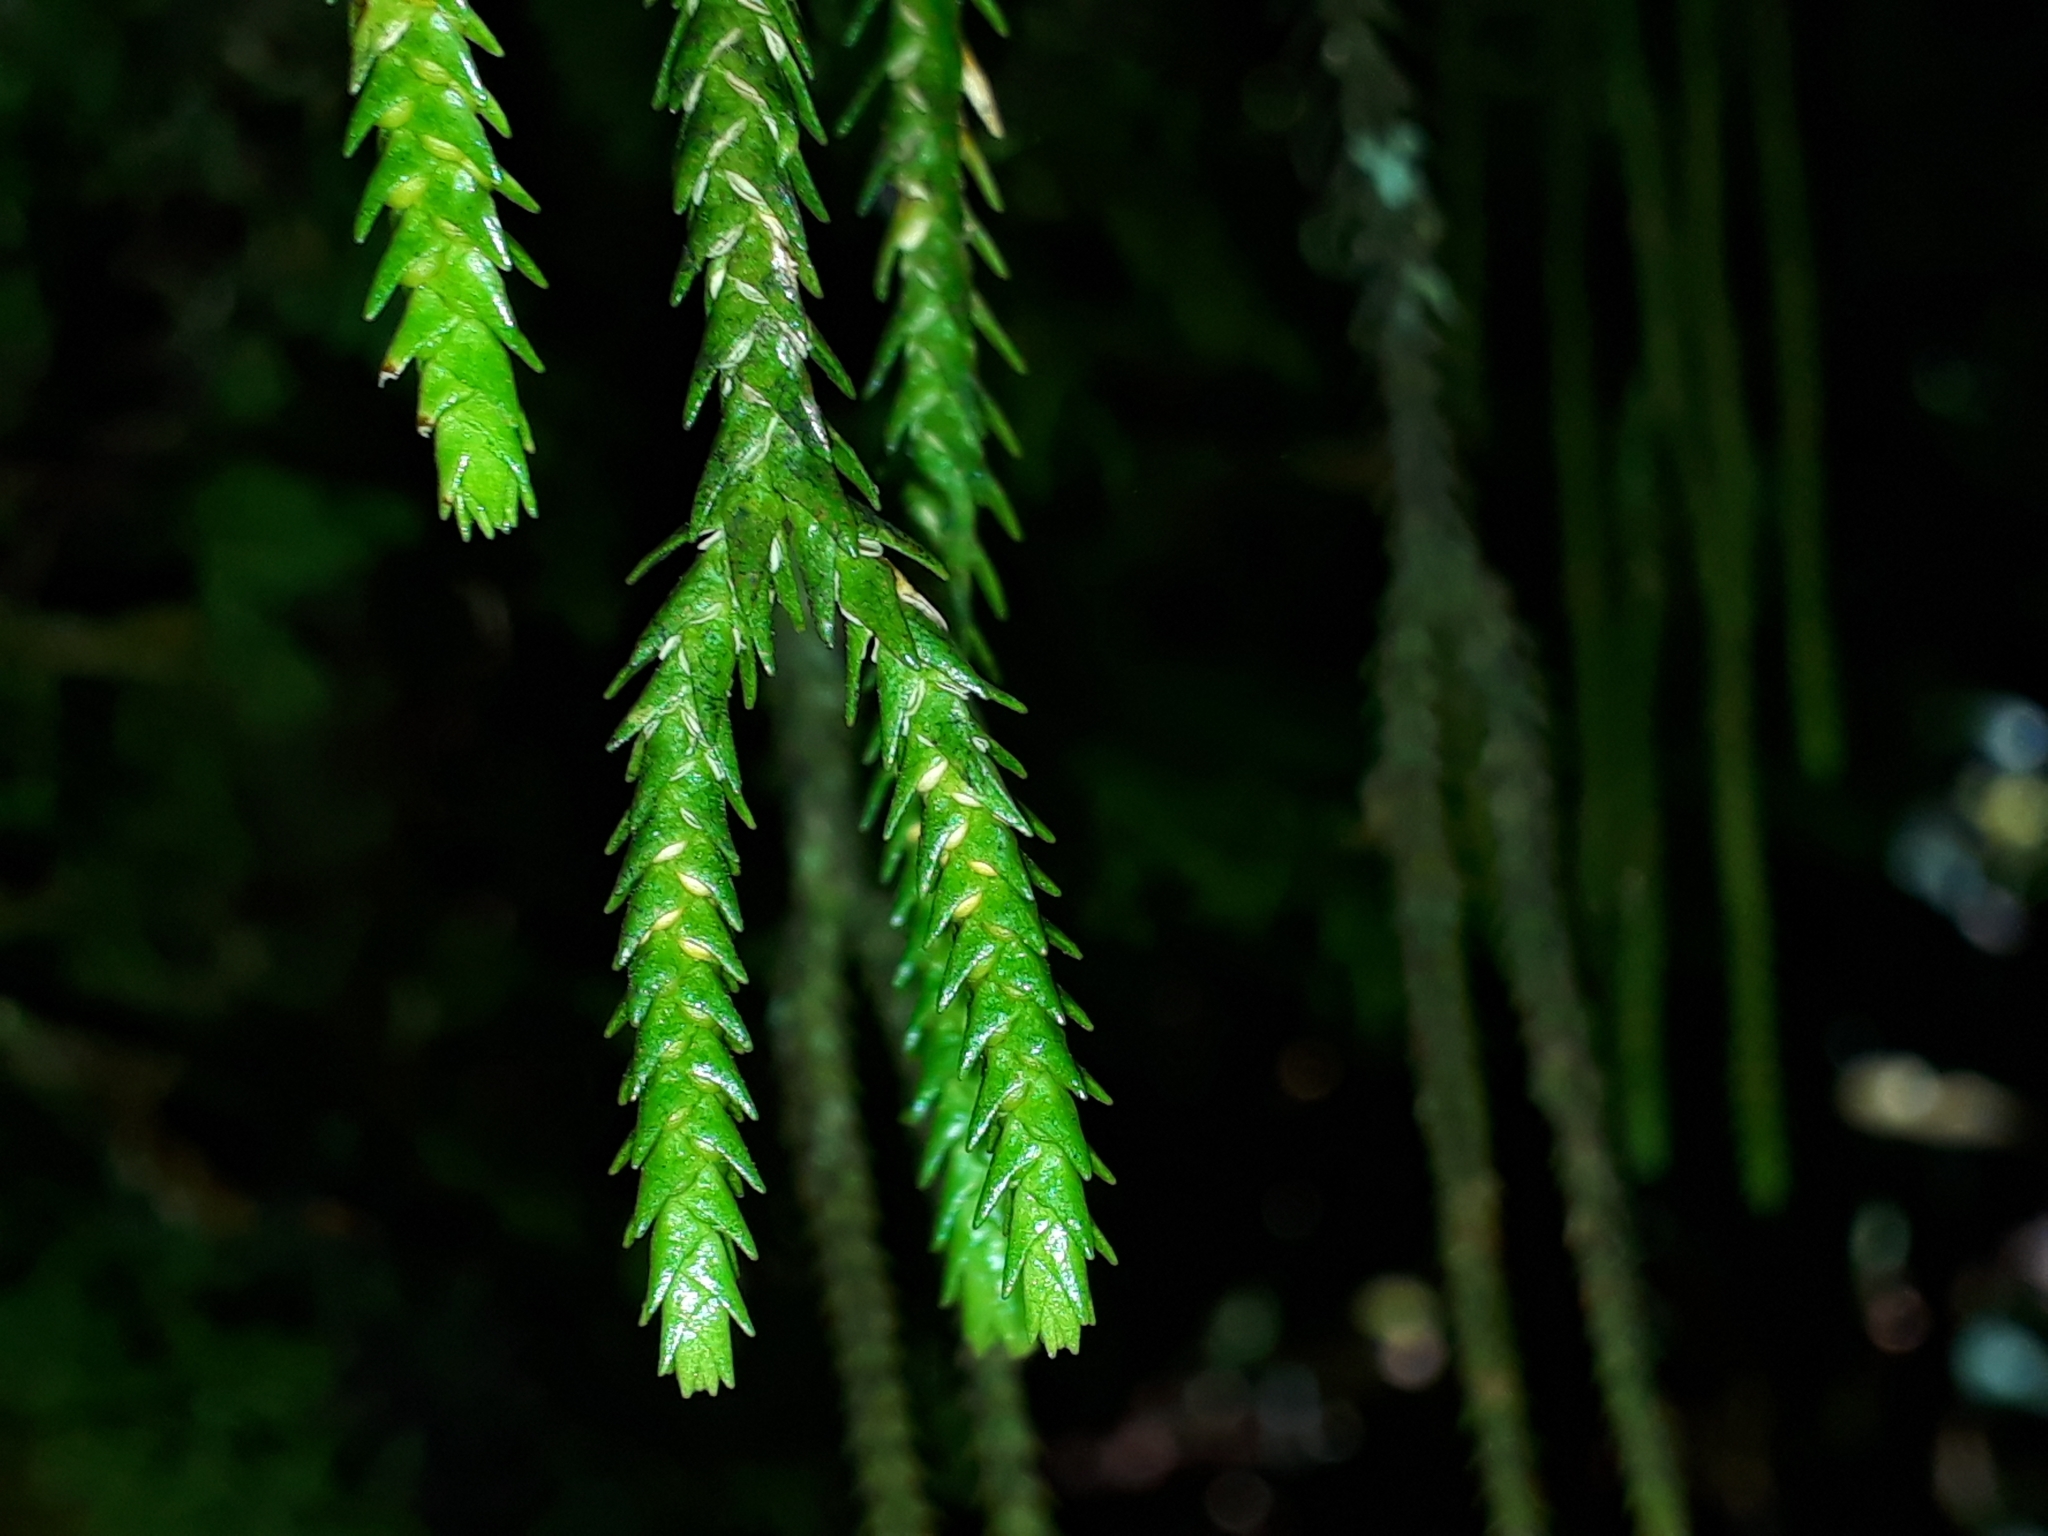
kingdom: Plantae
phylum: Tracheophyta
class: Lycopodiopsida
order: Lycopodiales
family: Lycopodiaceae
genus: Phlegmariurus
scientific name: Phlegmariurus varius
